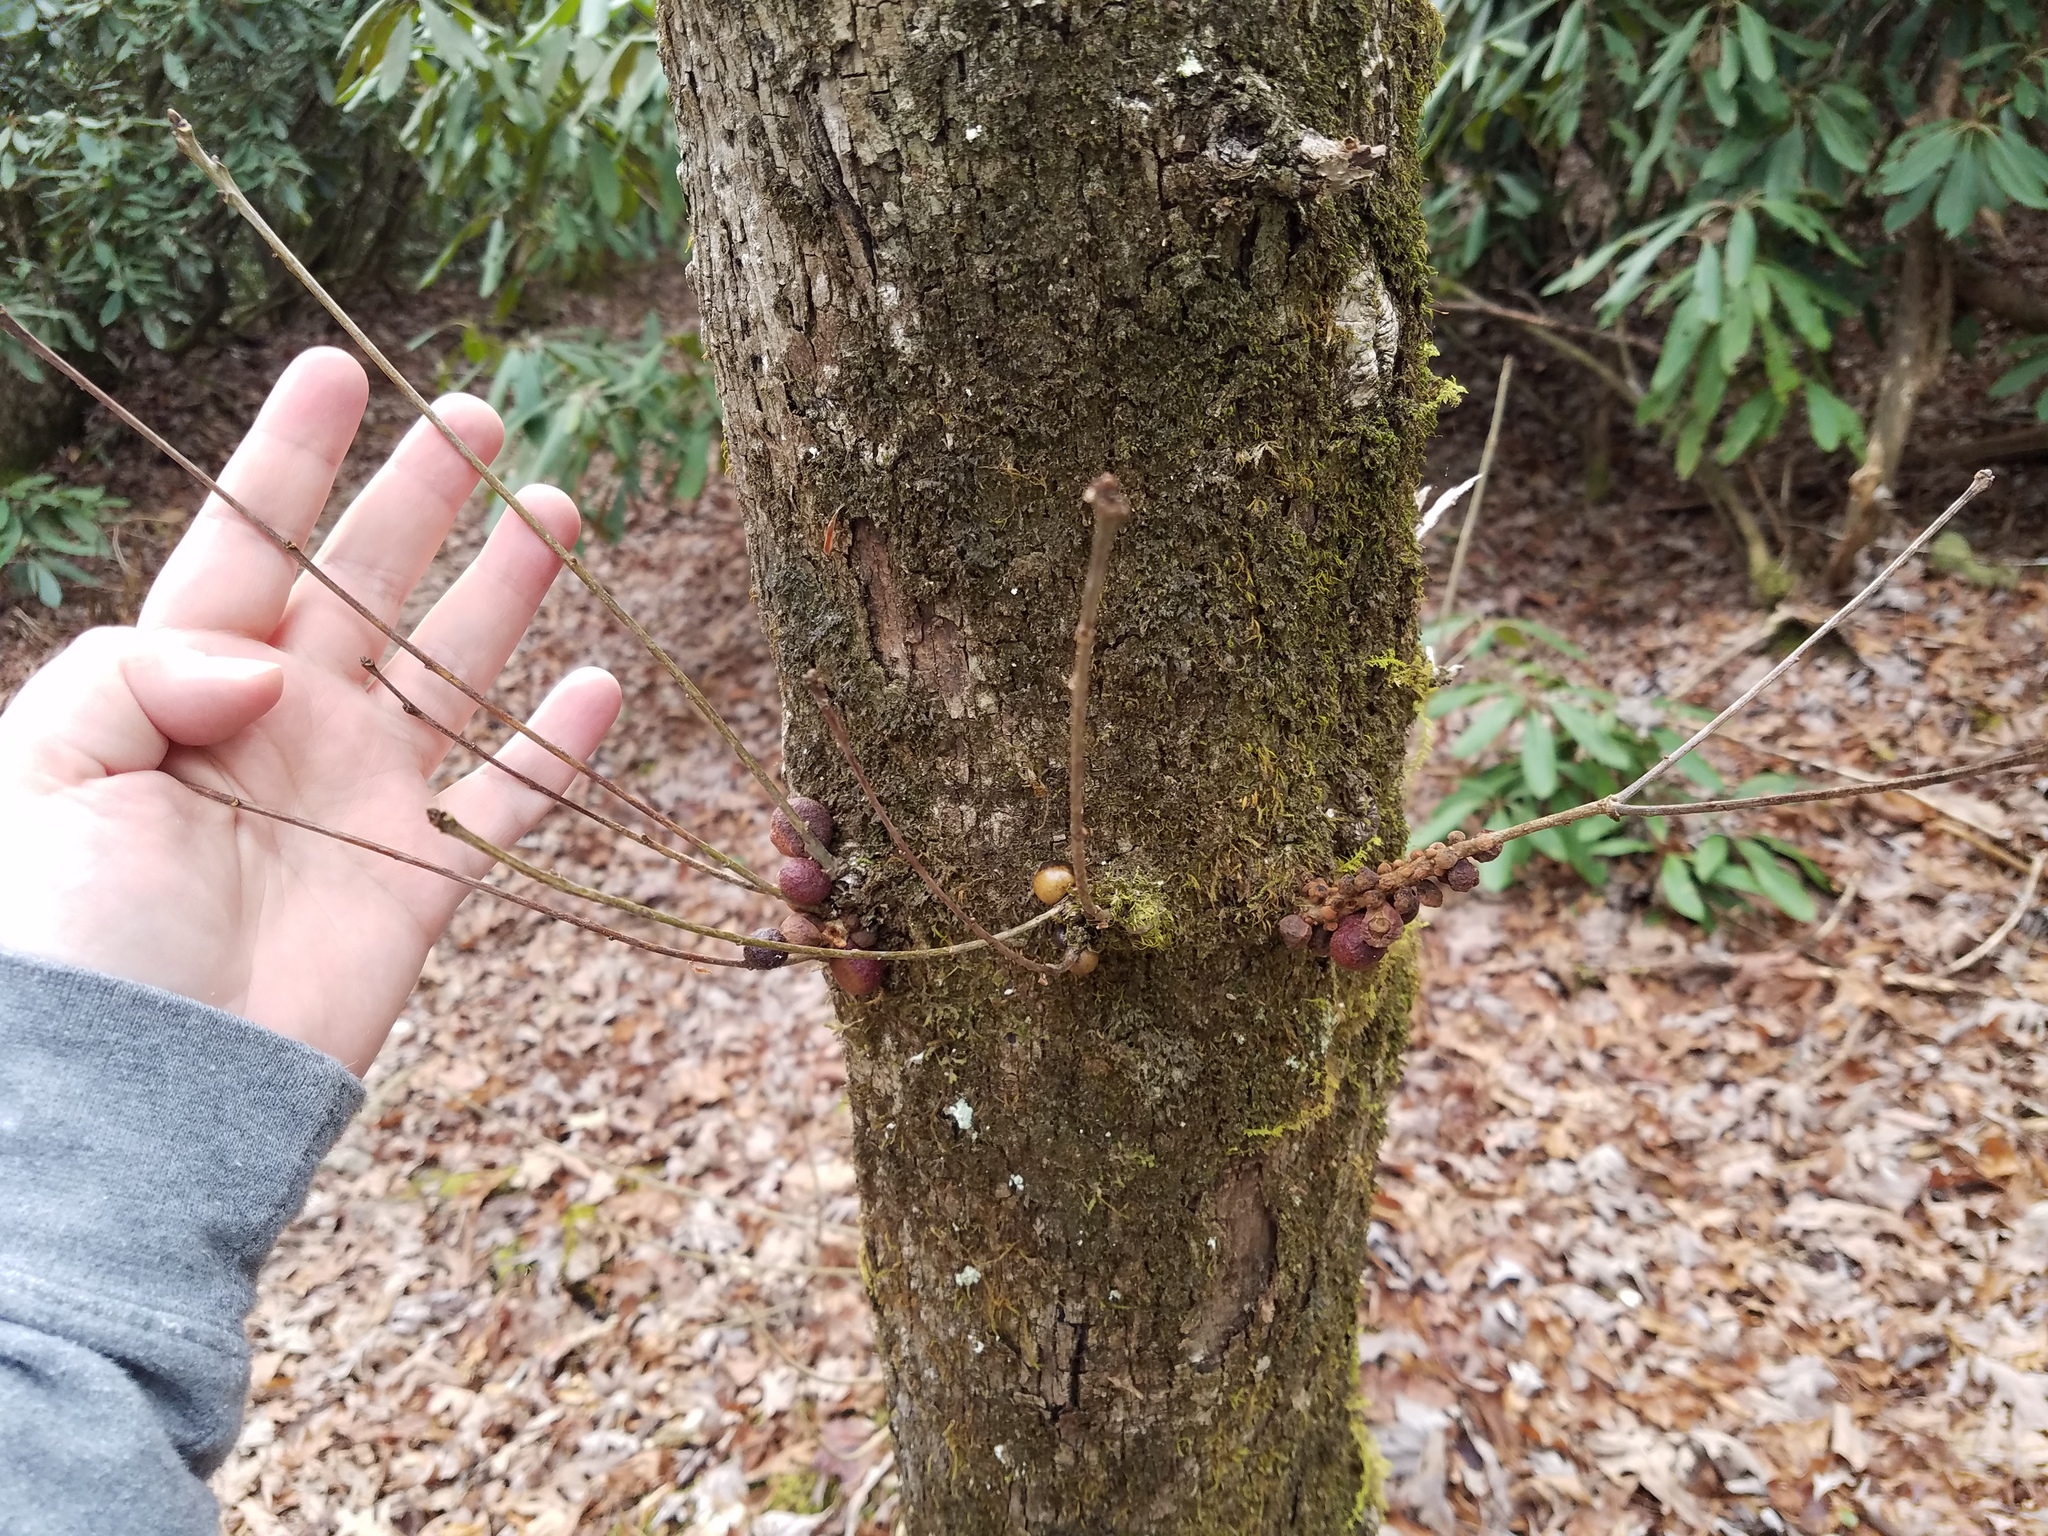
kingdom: Animalia
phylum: Arthropoda
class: Insecta
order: Hymenoptera
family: Cynipidae
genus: Disholcaspis
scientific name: Disholcaspis
